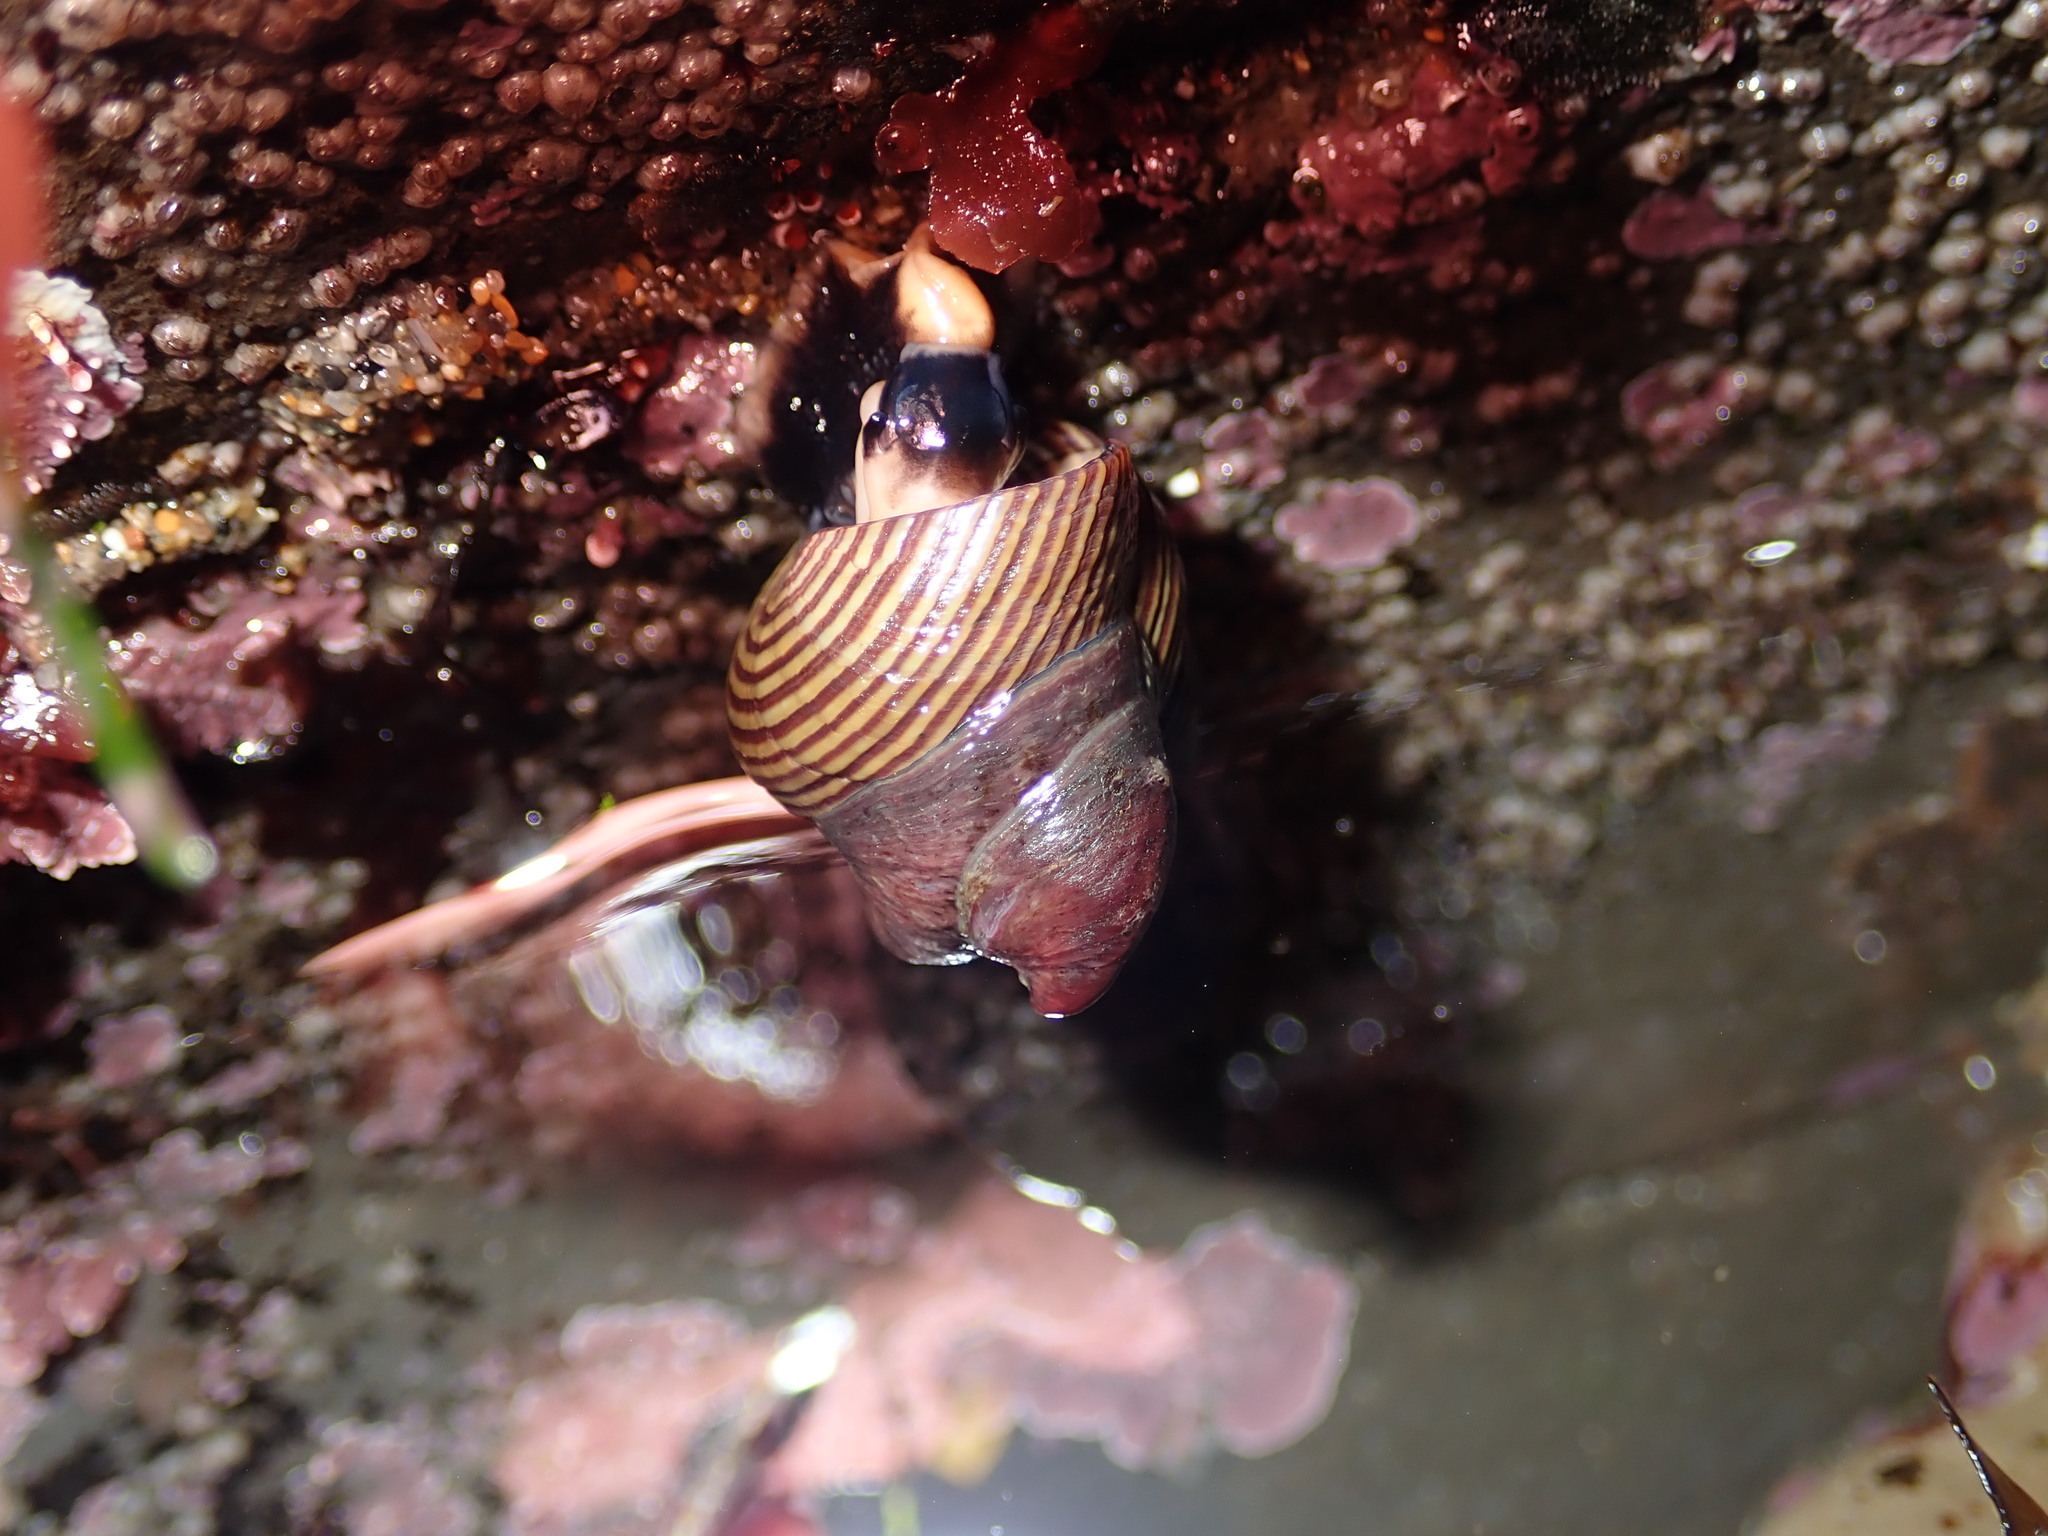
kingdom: Animalia
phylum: Mollusca
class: Gastropoda
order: Trochida
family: Calliostomatidae
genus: Calliostoma
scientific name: Calliostoma ligatum
